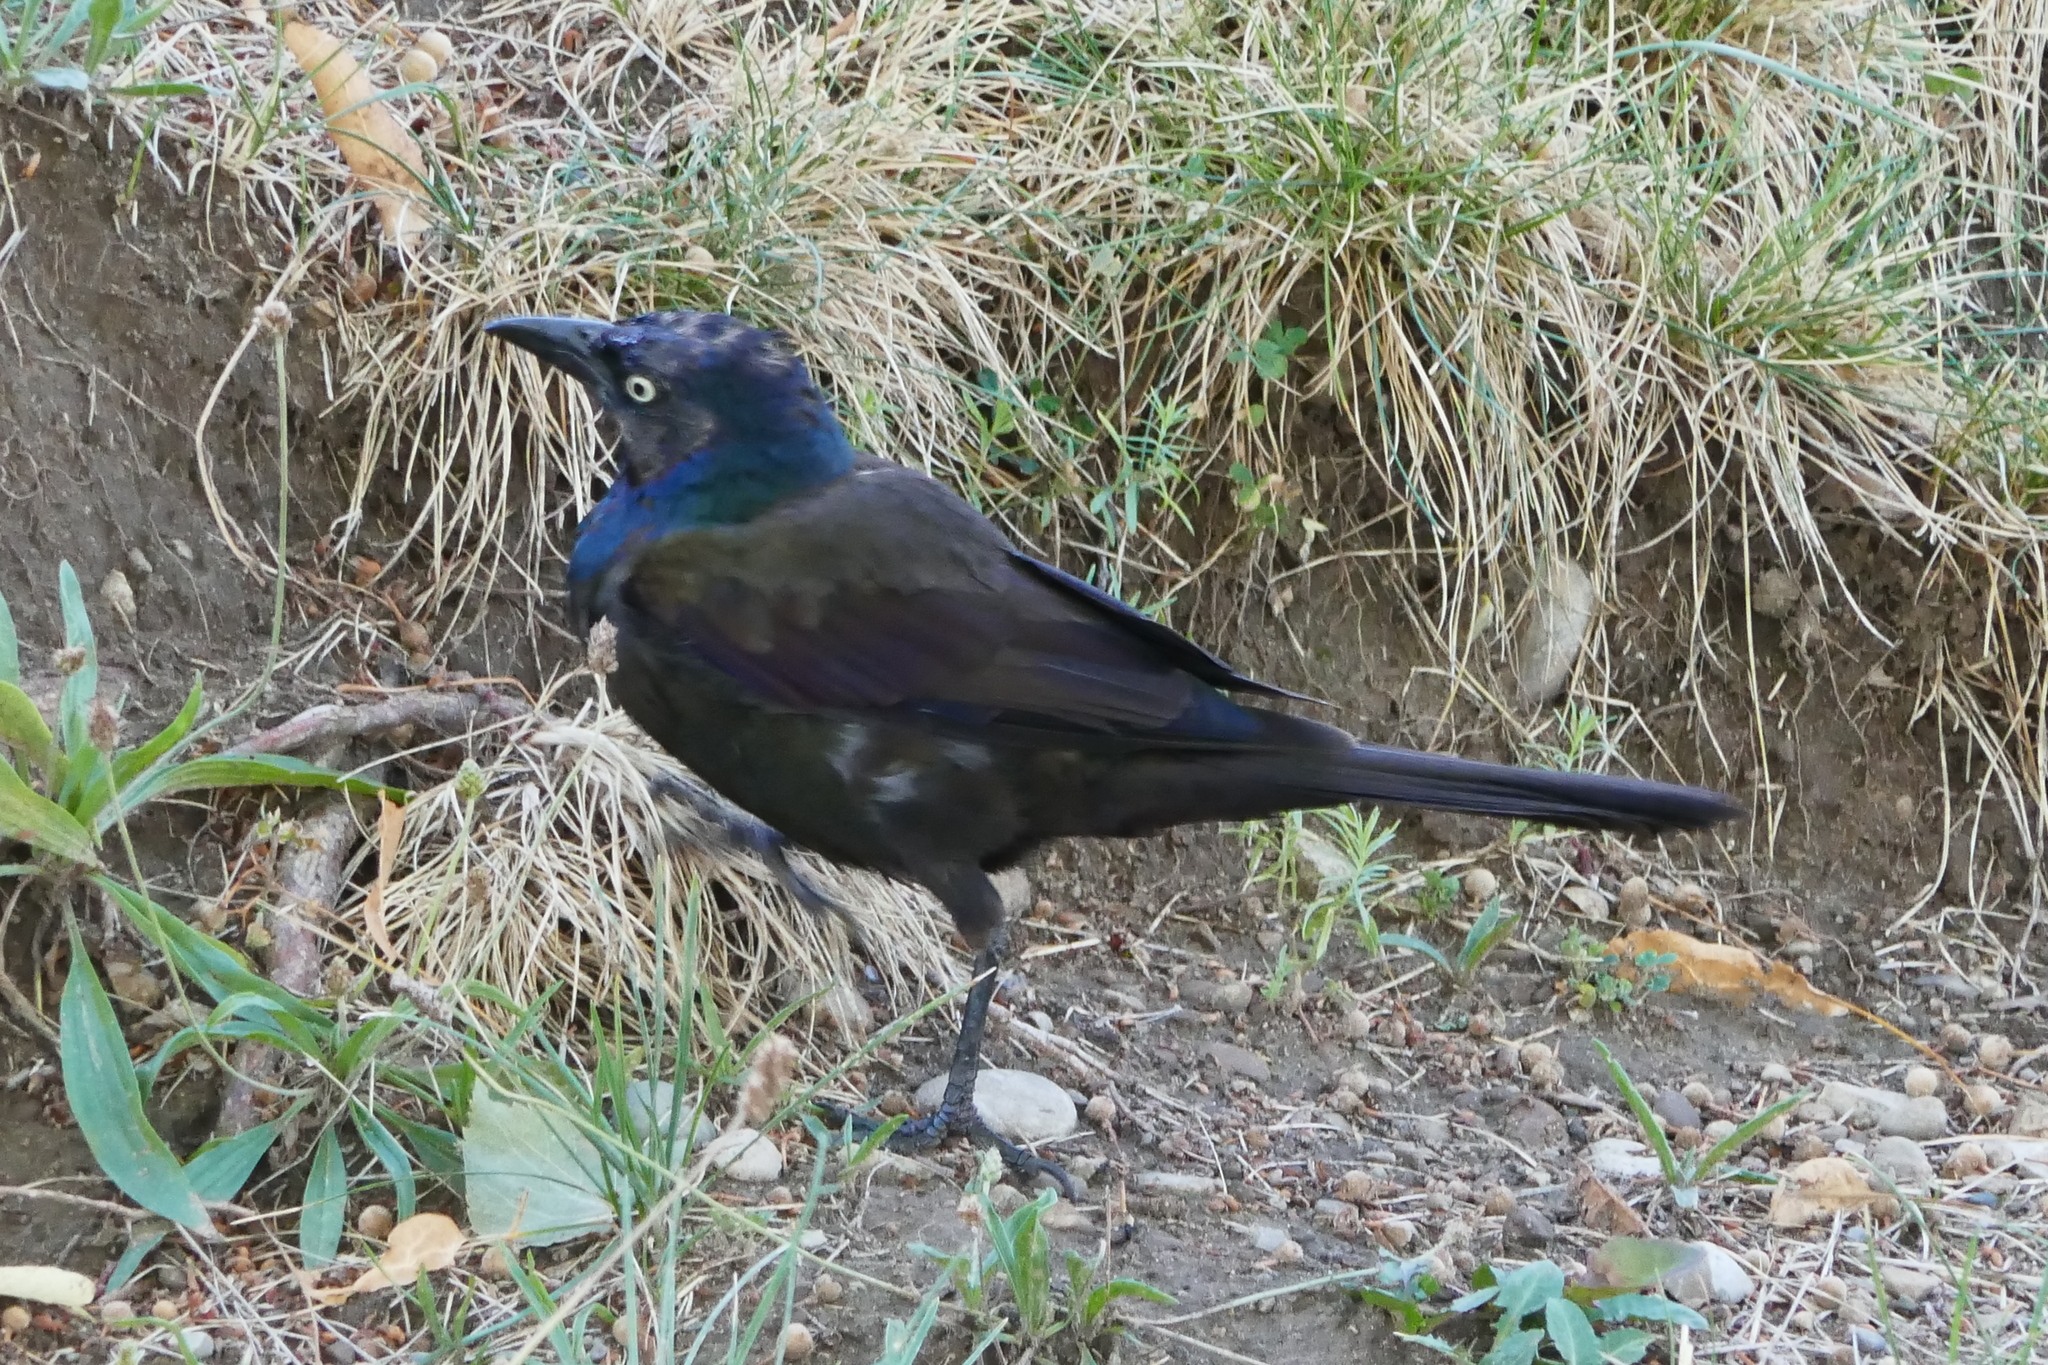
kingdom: Animalia
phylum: Chordata
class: Aves
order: Passeriformes
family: Icteridae
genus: Quiscalus
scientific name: Quiscalus quiscula
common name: Common grackle
